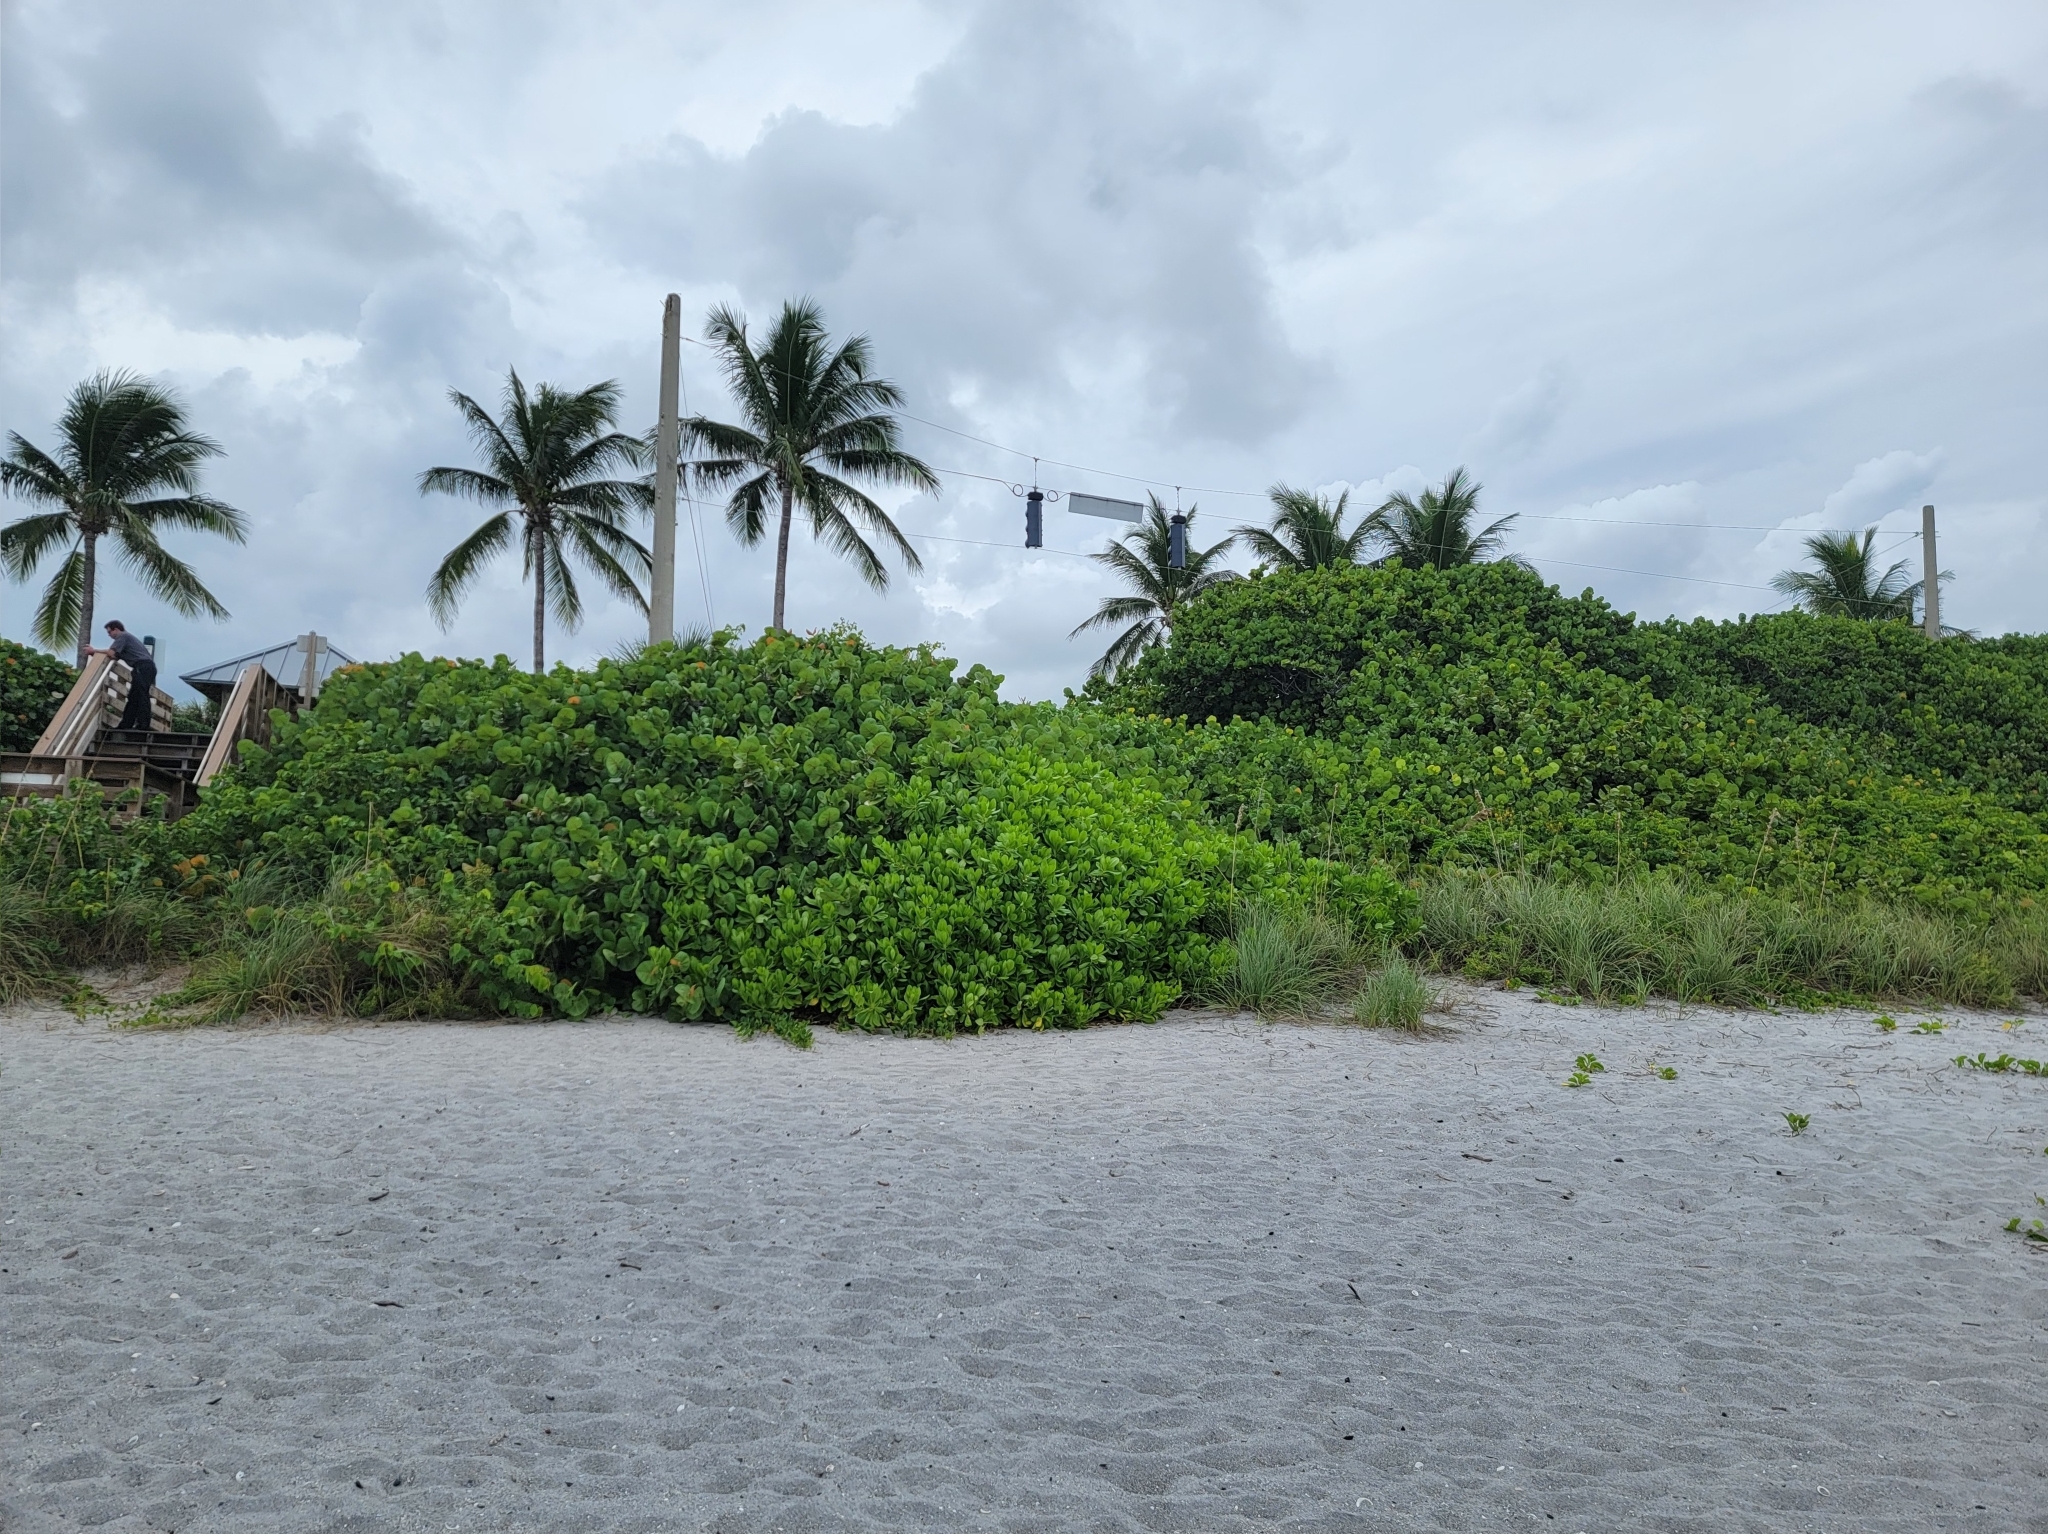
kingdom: Plantae
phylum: Tracheophyta
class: Magnoliopsida
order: Asterales
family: Goodeniaceae
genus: Scaevola
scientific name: Scaevola taccada
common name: Sea lettucetree
